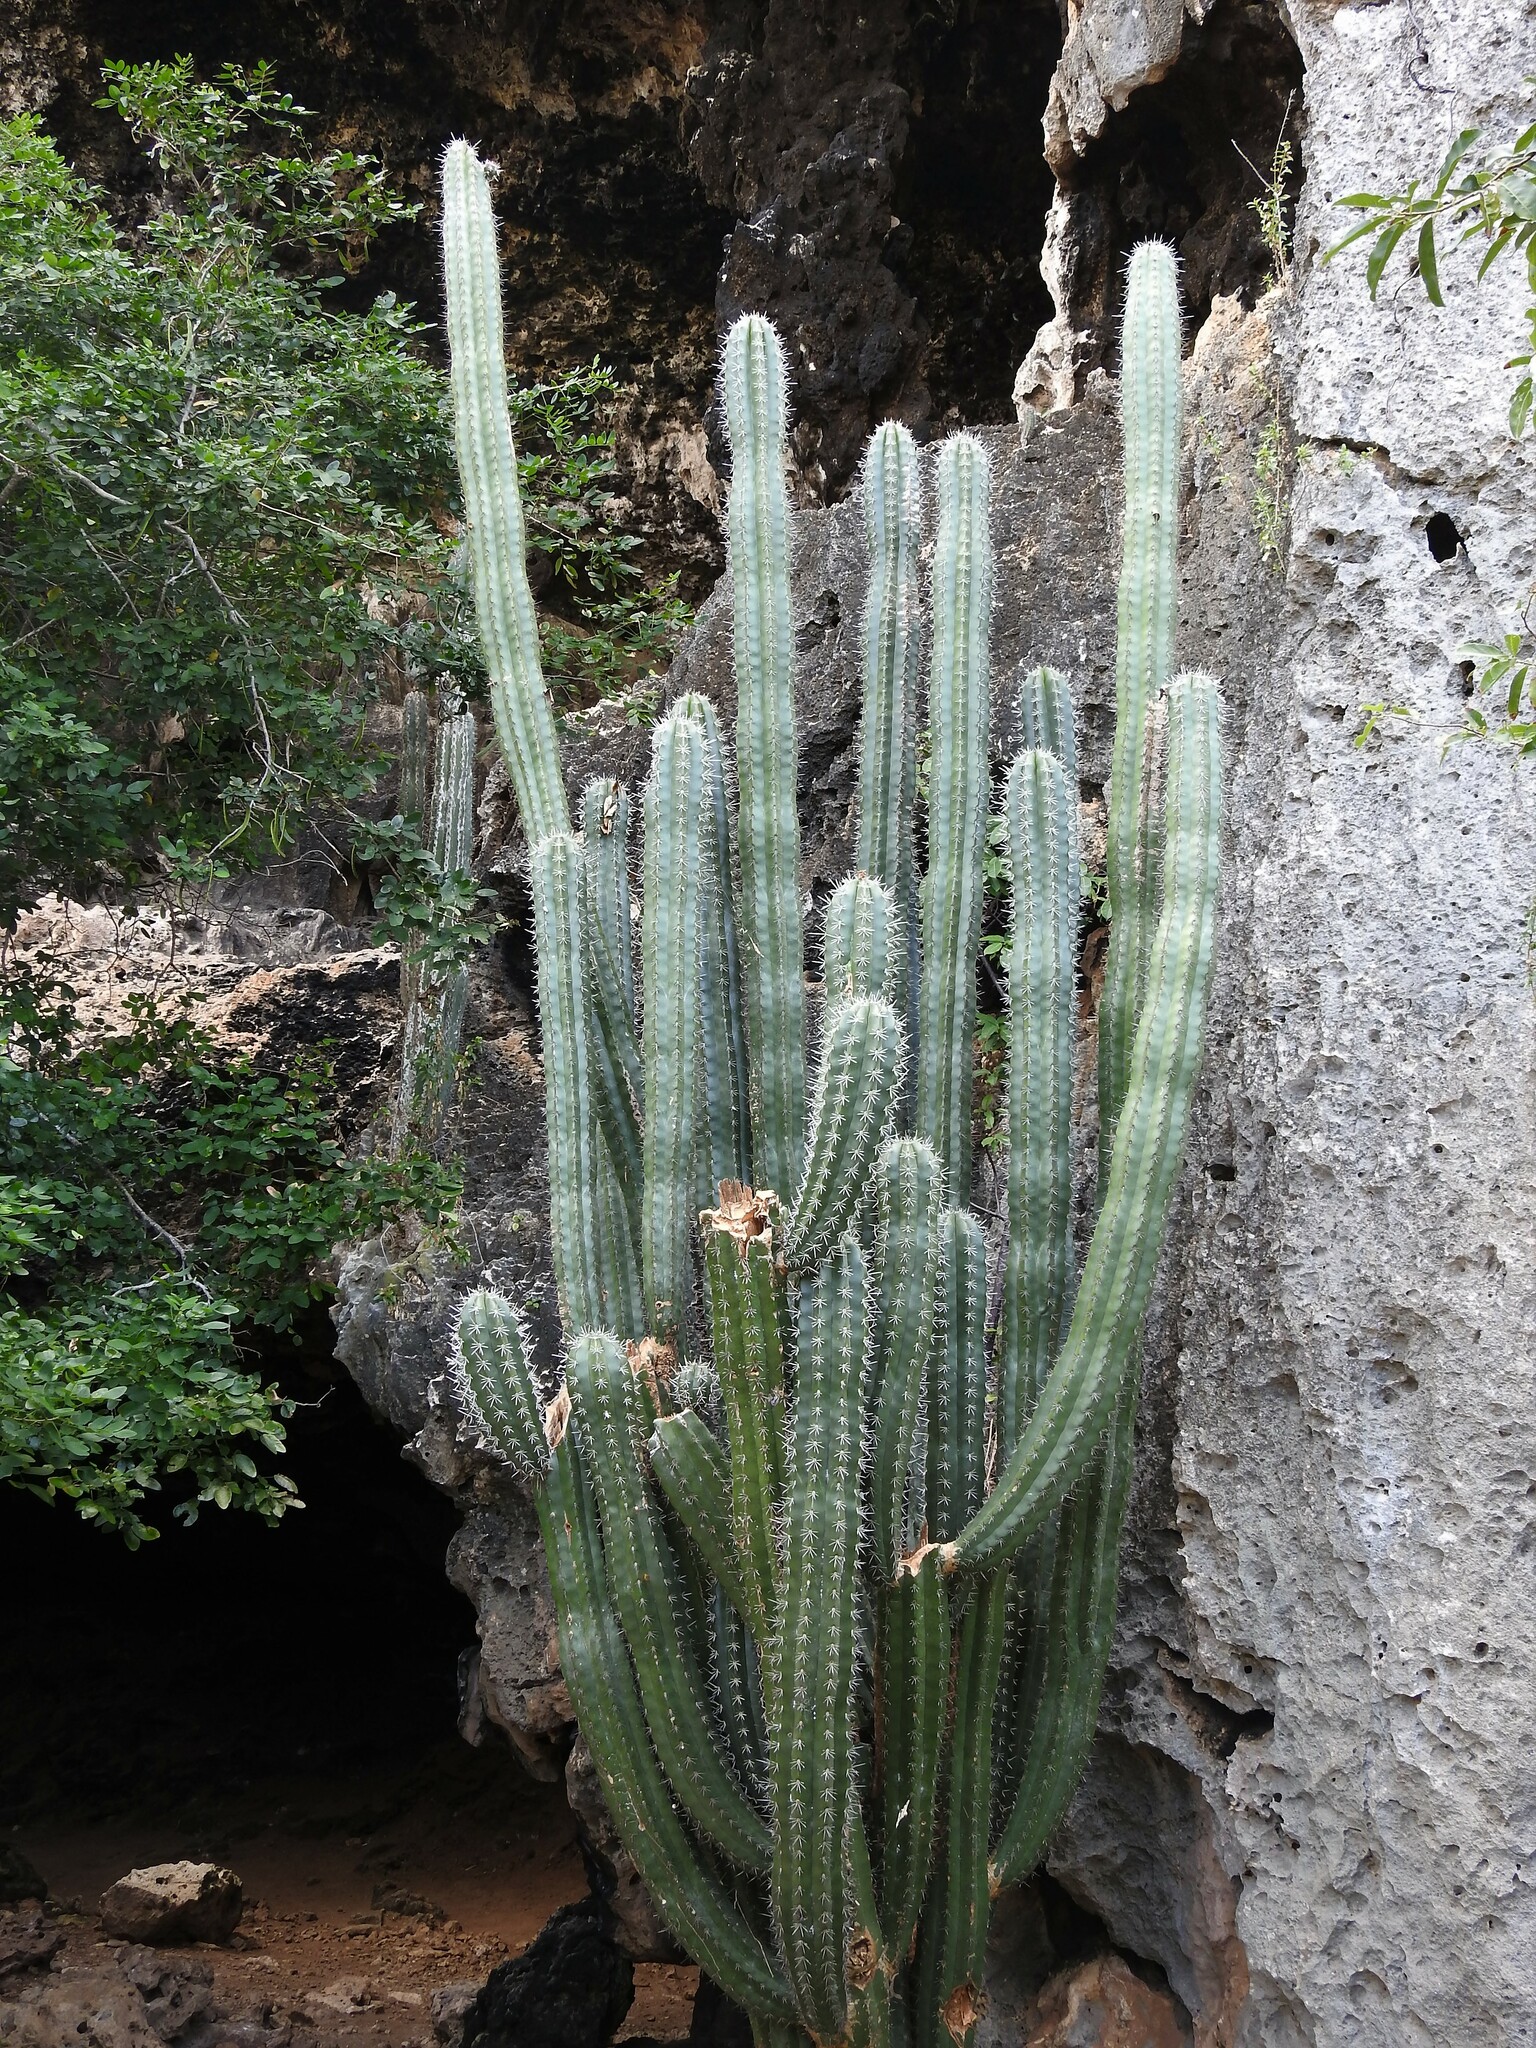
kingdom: Plantae
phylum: Tracheophyta
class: Magnoliopsida
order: Caryophyllales
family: Cactaceae
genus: Stenocereus
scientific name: Stenocereus griseus
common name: Tall candelabra cactus
